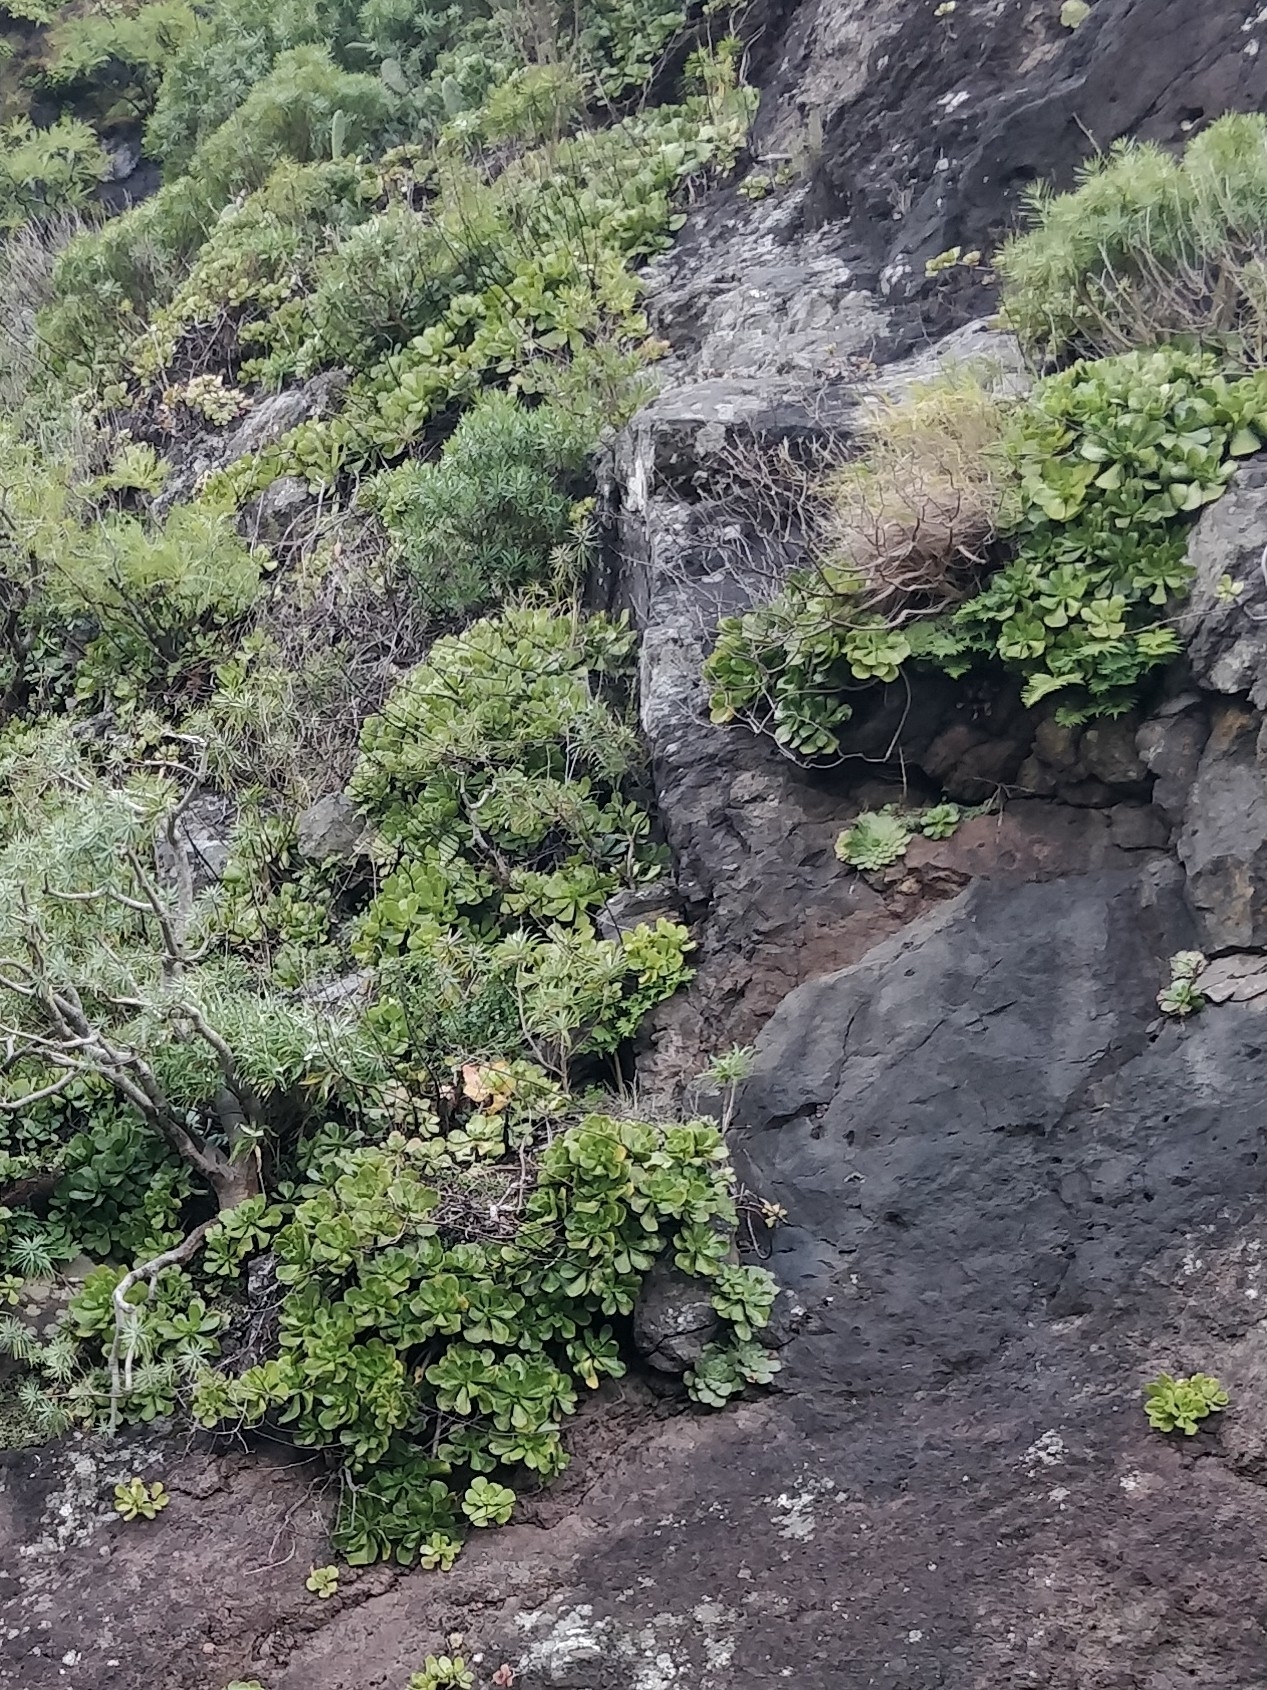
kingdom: Plantae
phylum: Tracheophyta
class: Magnoliopsida
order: Saxifragales
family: Crassulaceae
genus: Aeonium
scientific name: Aeonium glutinosum
